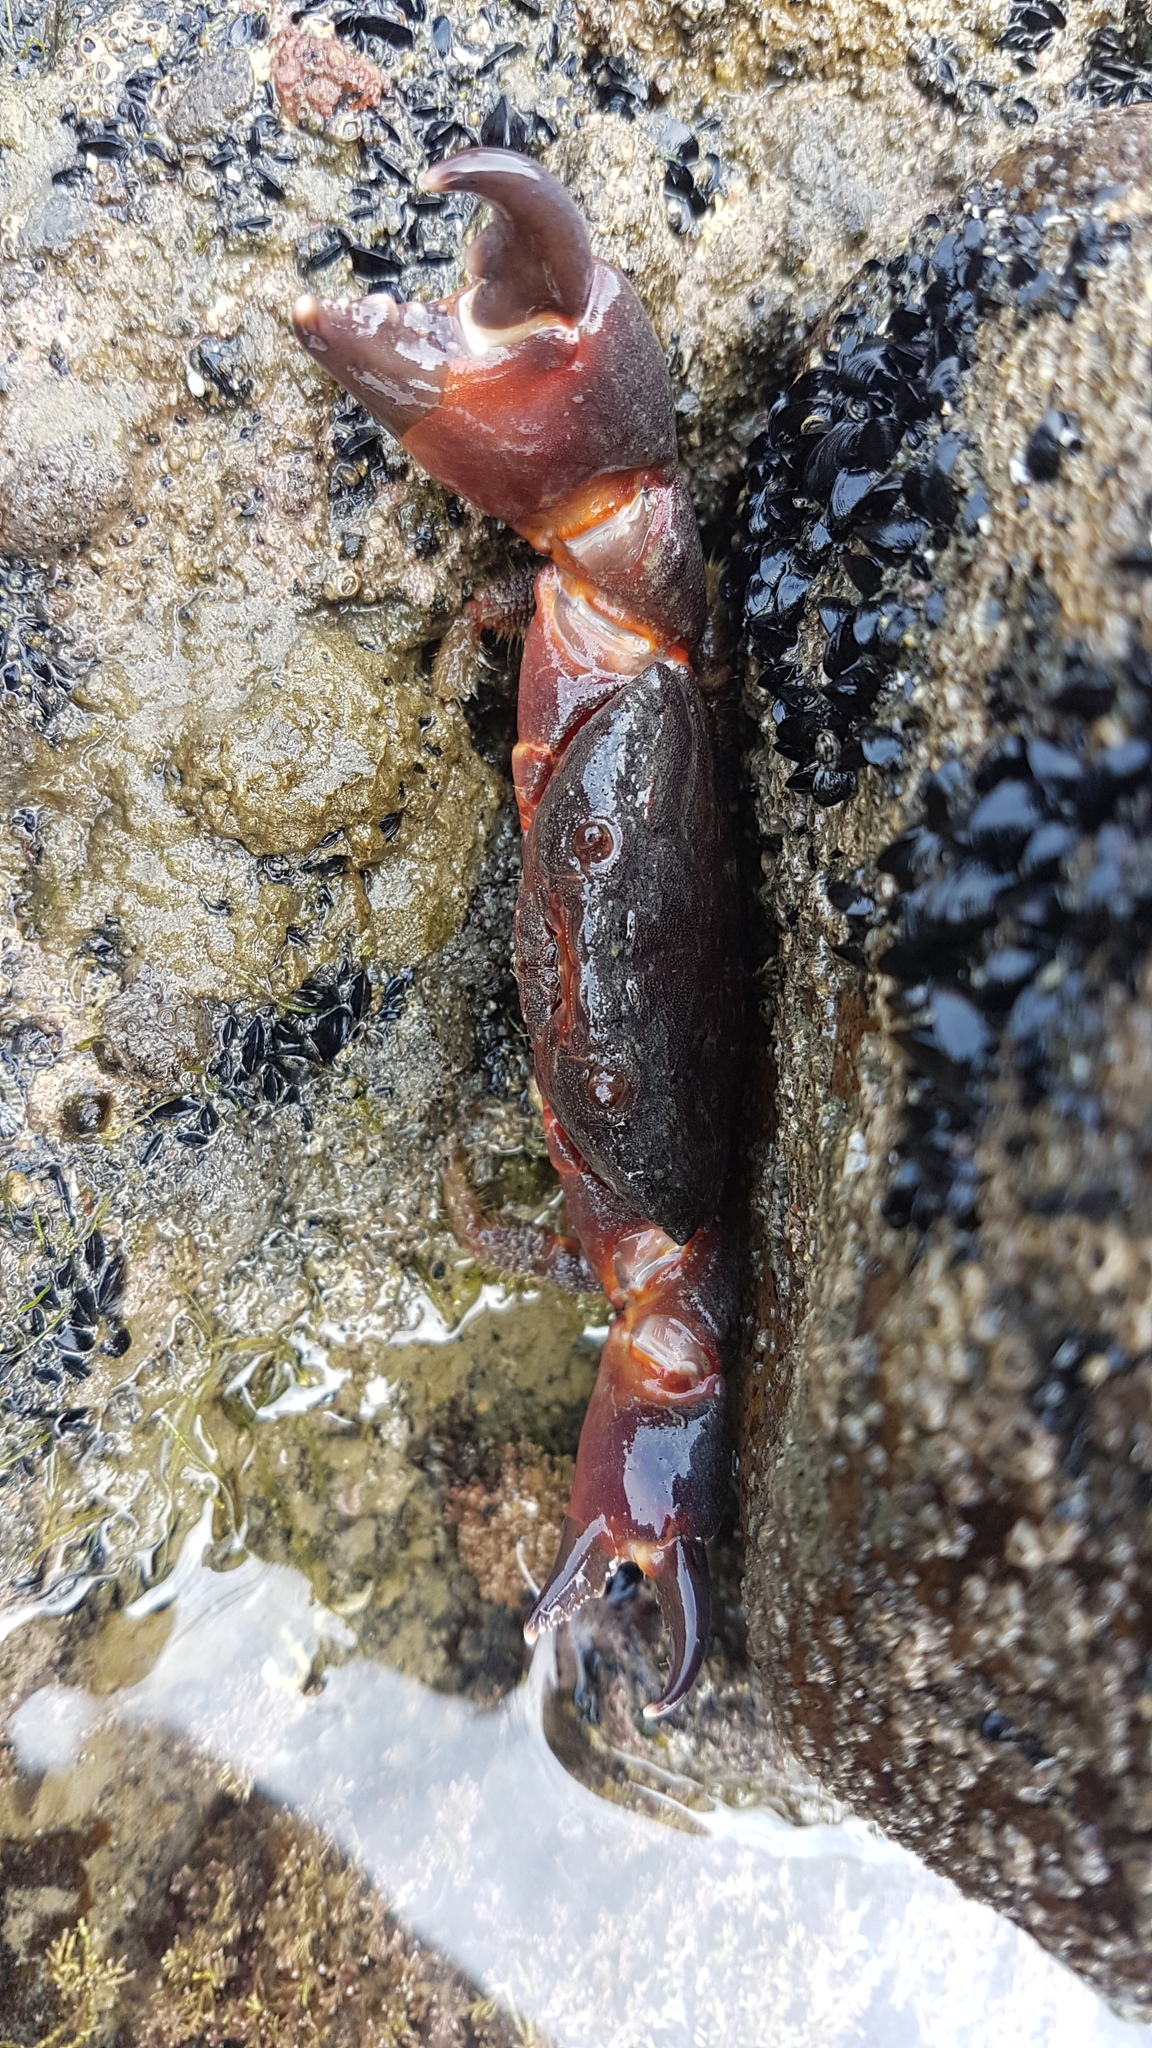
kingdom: Animalia
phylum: Arthropoda
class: Malacostraca
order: Decapoda
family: Oziidae
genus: Ozius
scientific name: Ozius deplanatus
